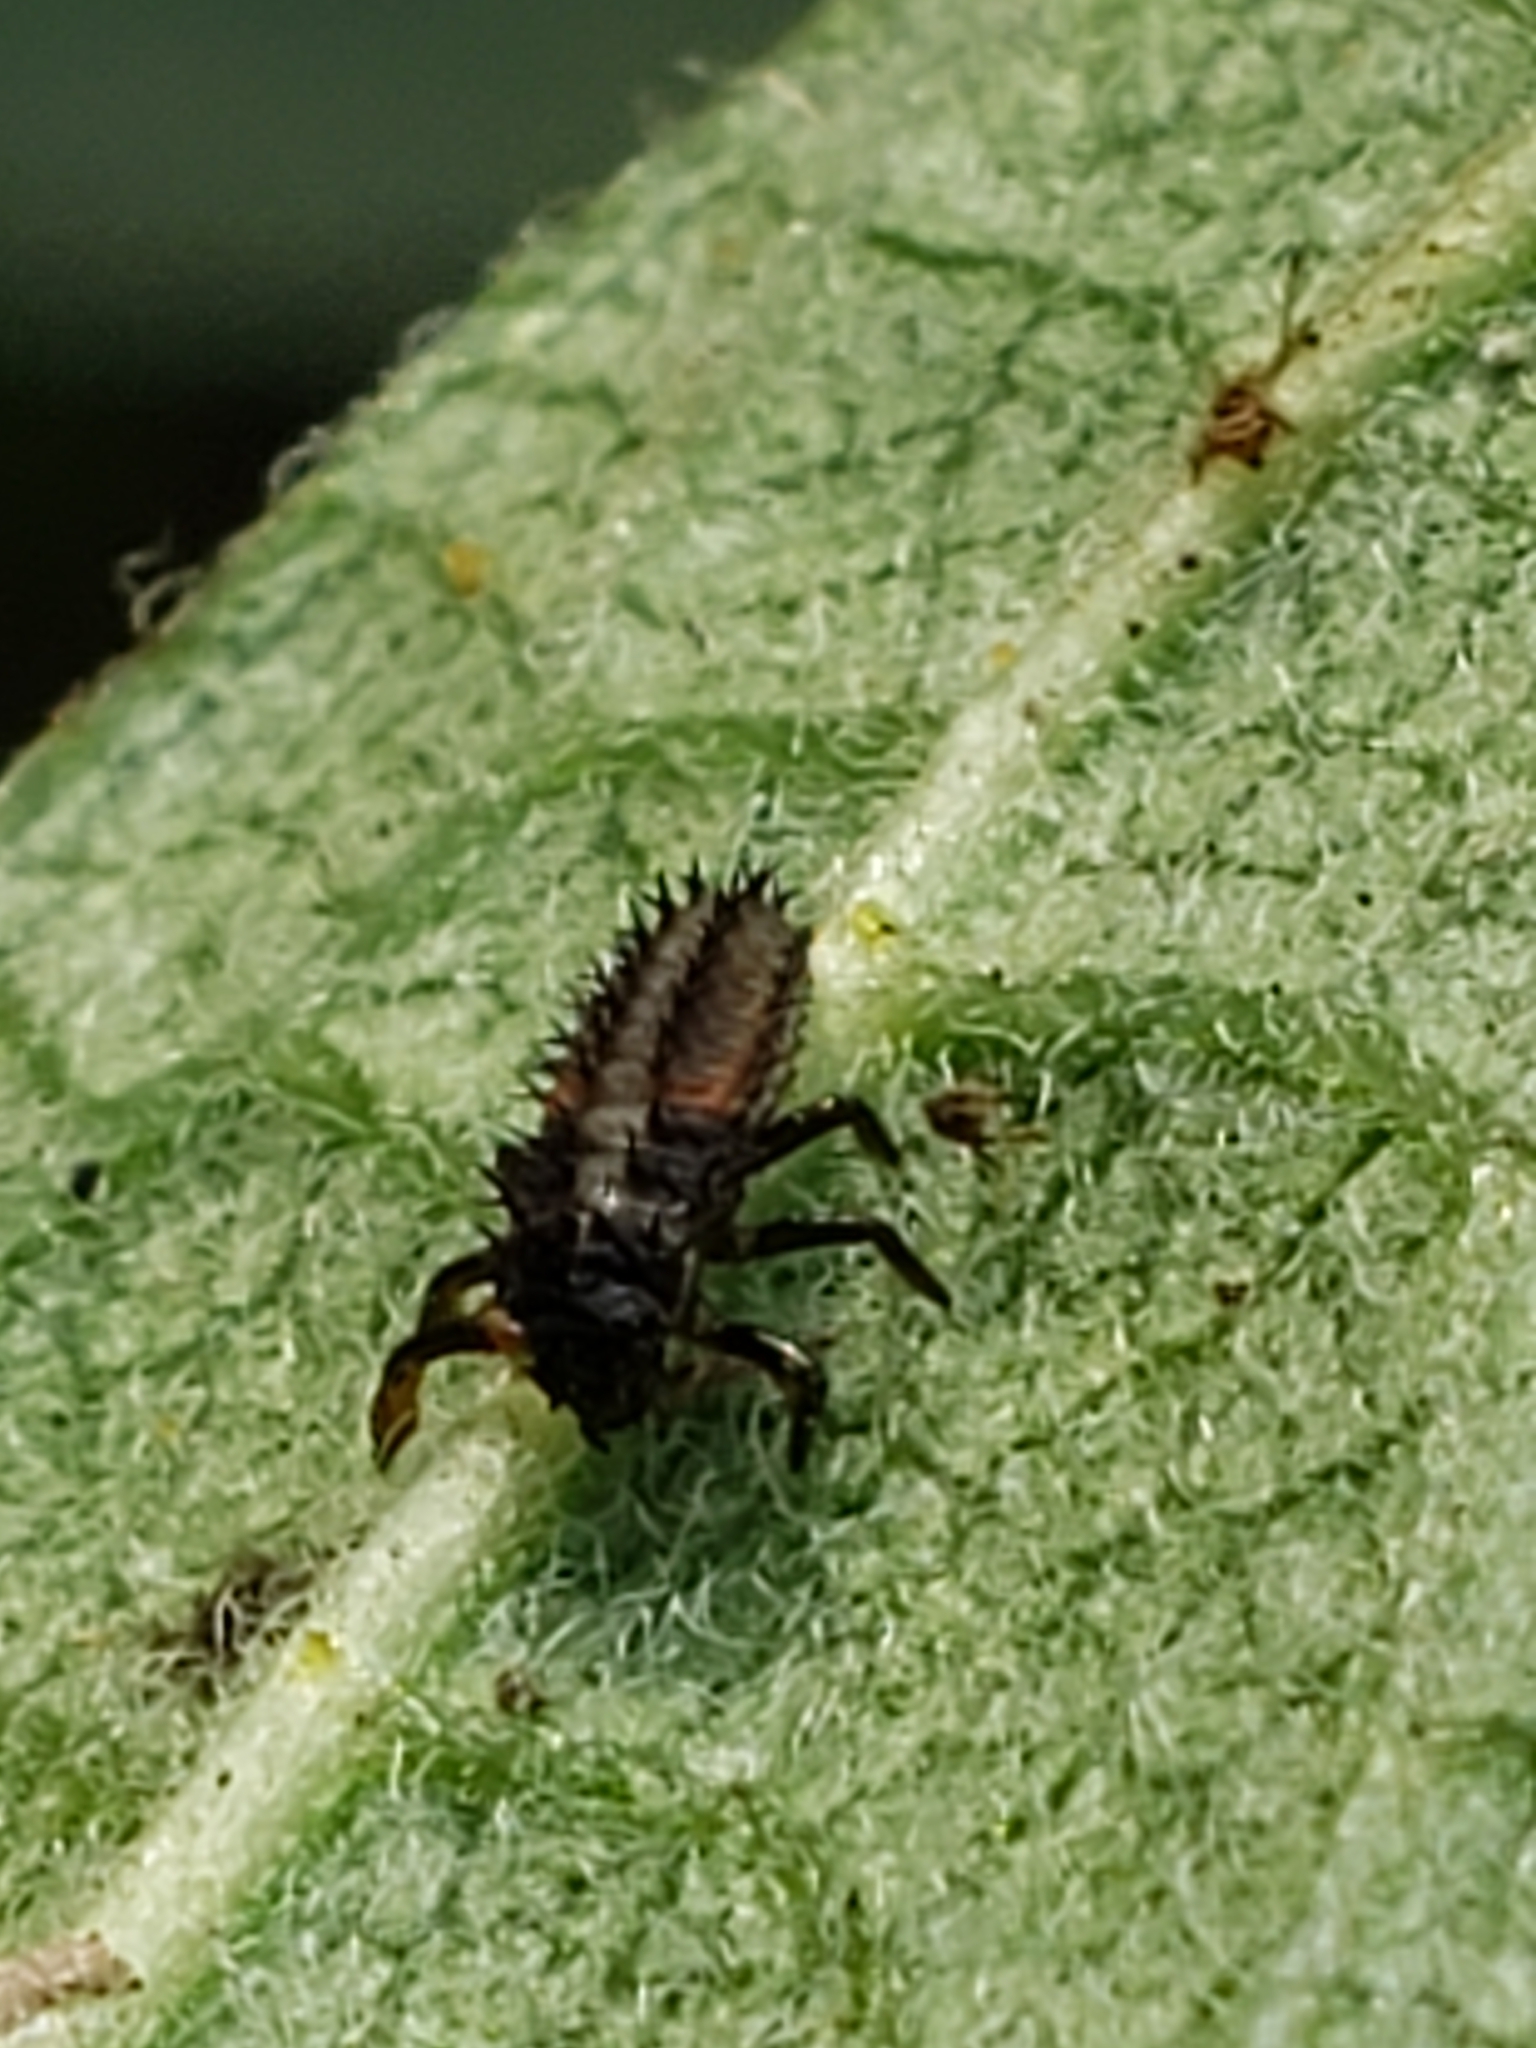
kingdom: Animalia
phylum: Arthropoda
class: Insecta
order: Coleoptera
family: Coccinellidae
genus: Harmonia
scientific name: Harmonia axyridis
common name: Harlequin ladybird
